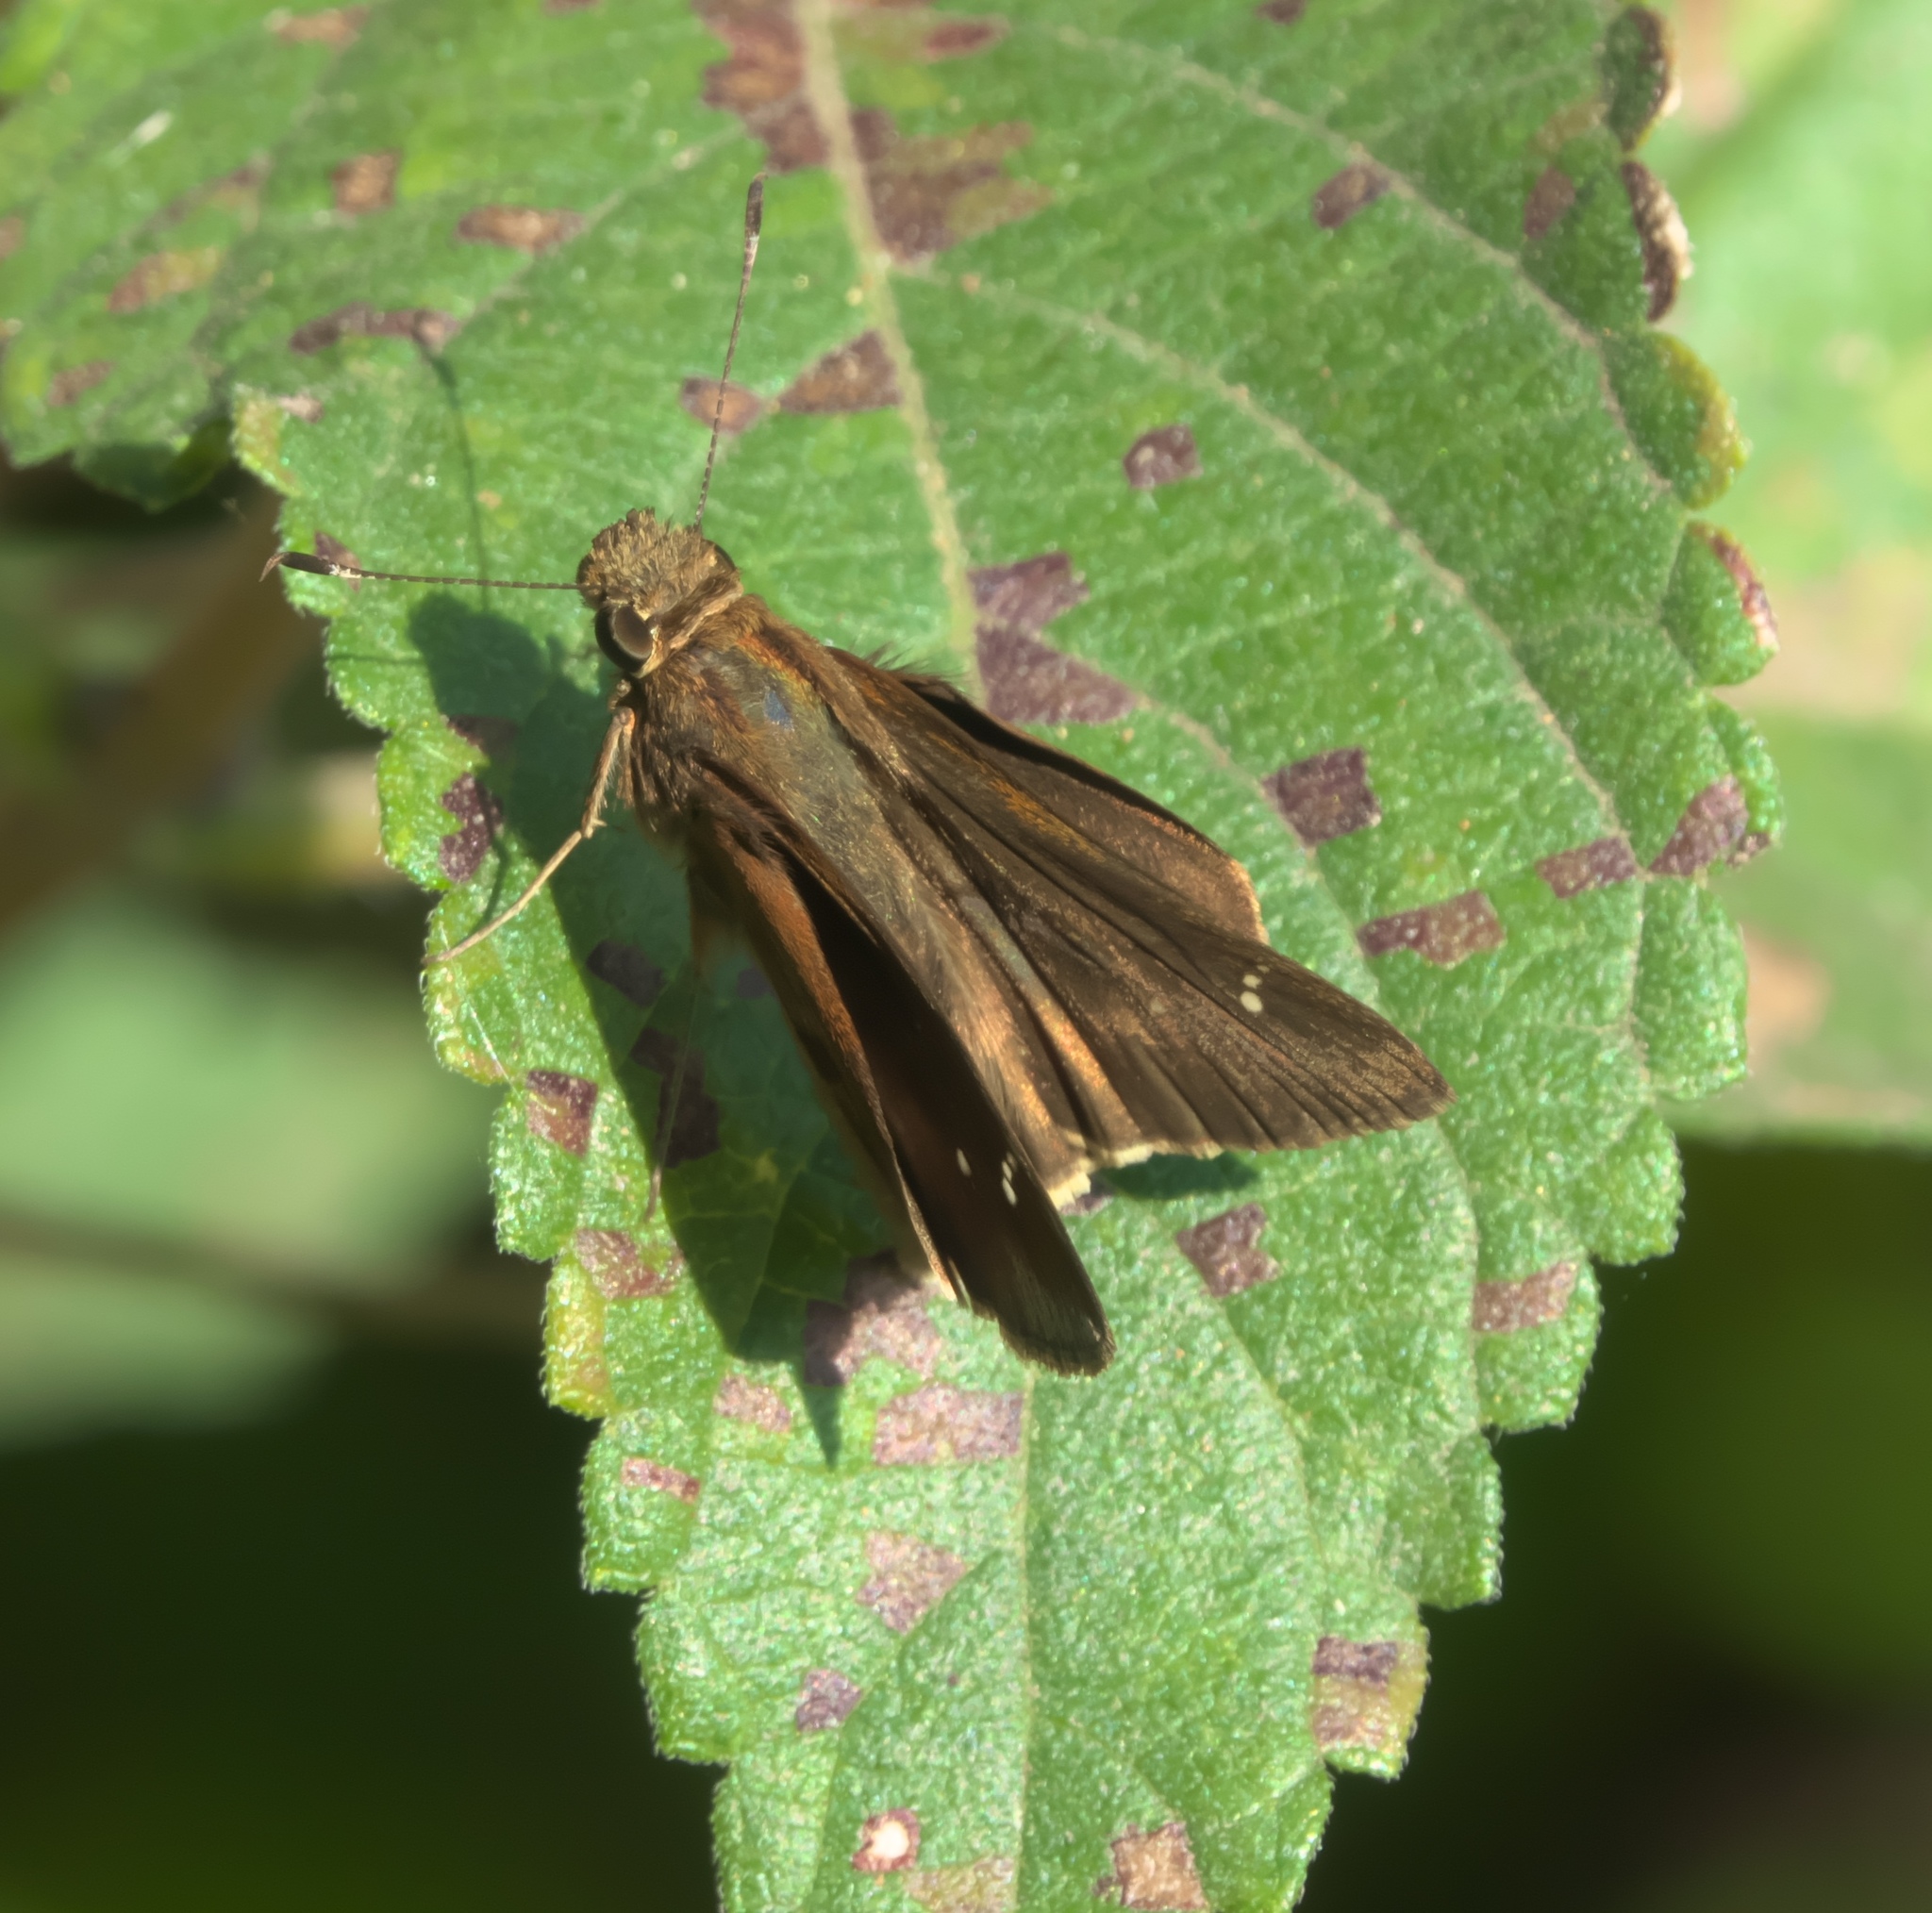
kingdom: Animalia
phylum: Arthropoda
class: Insecta
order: Lepidoptera
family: Hesperiidae
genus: Lerema
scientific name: Lerema accius
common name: Clouded skipper
